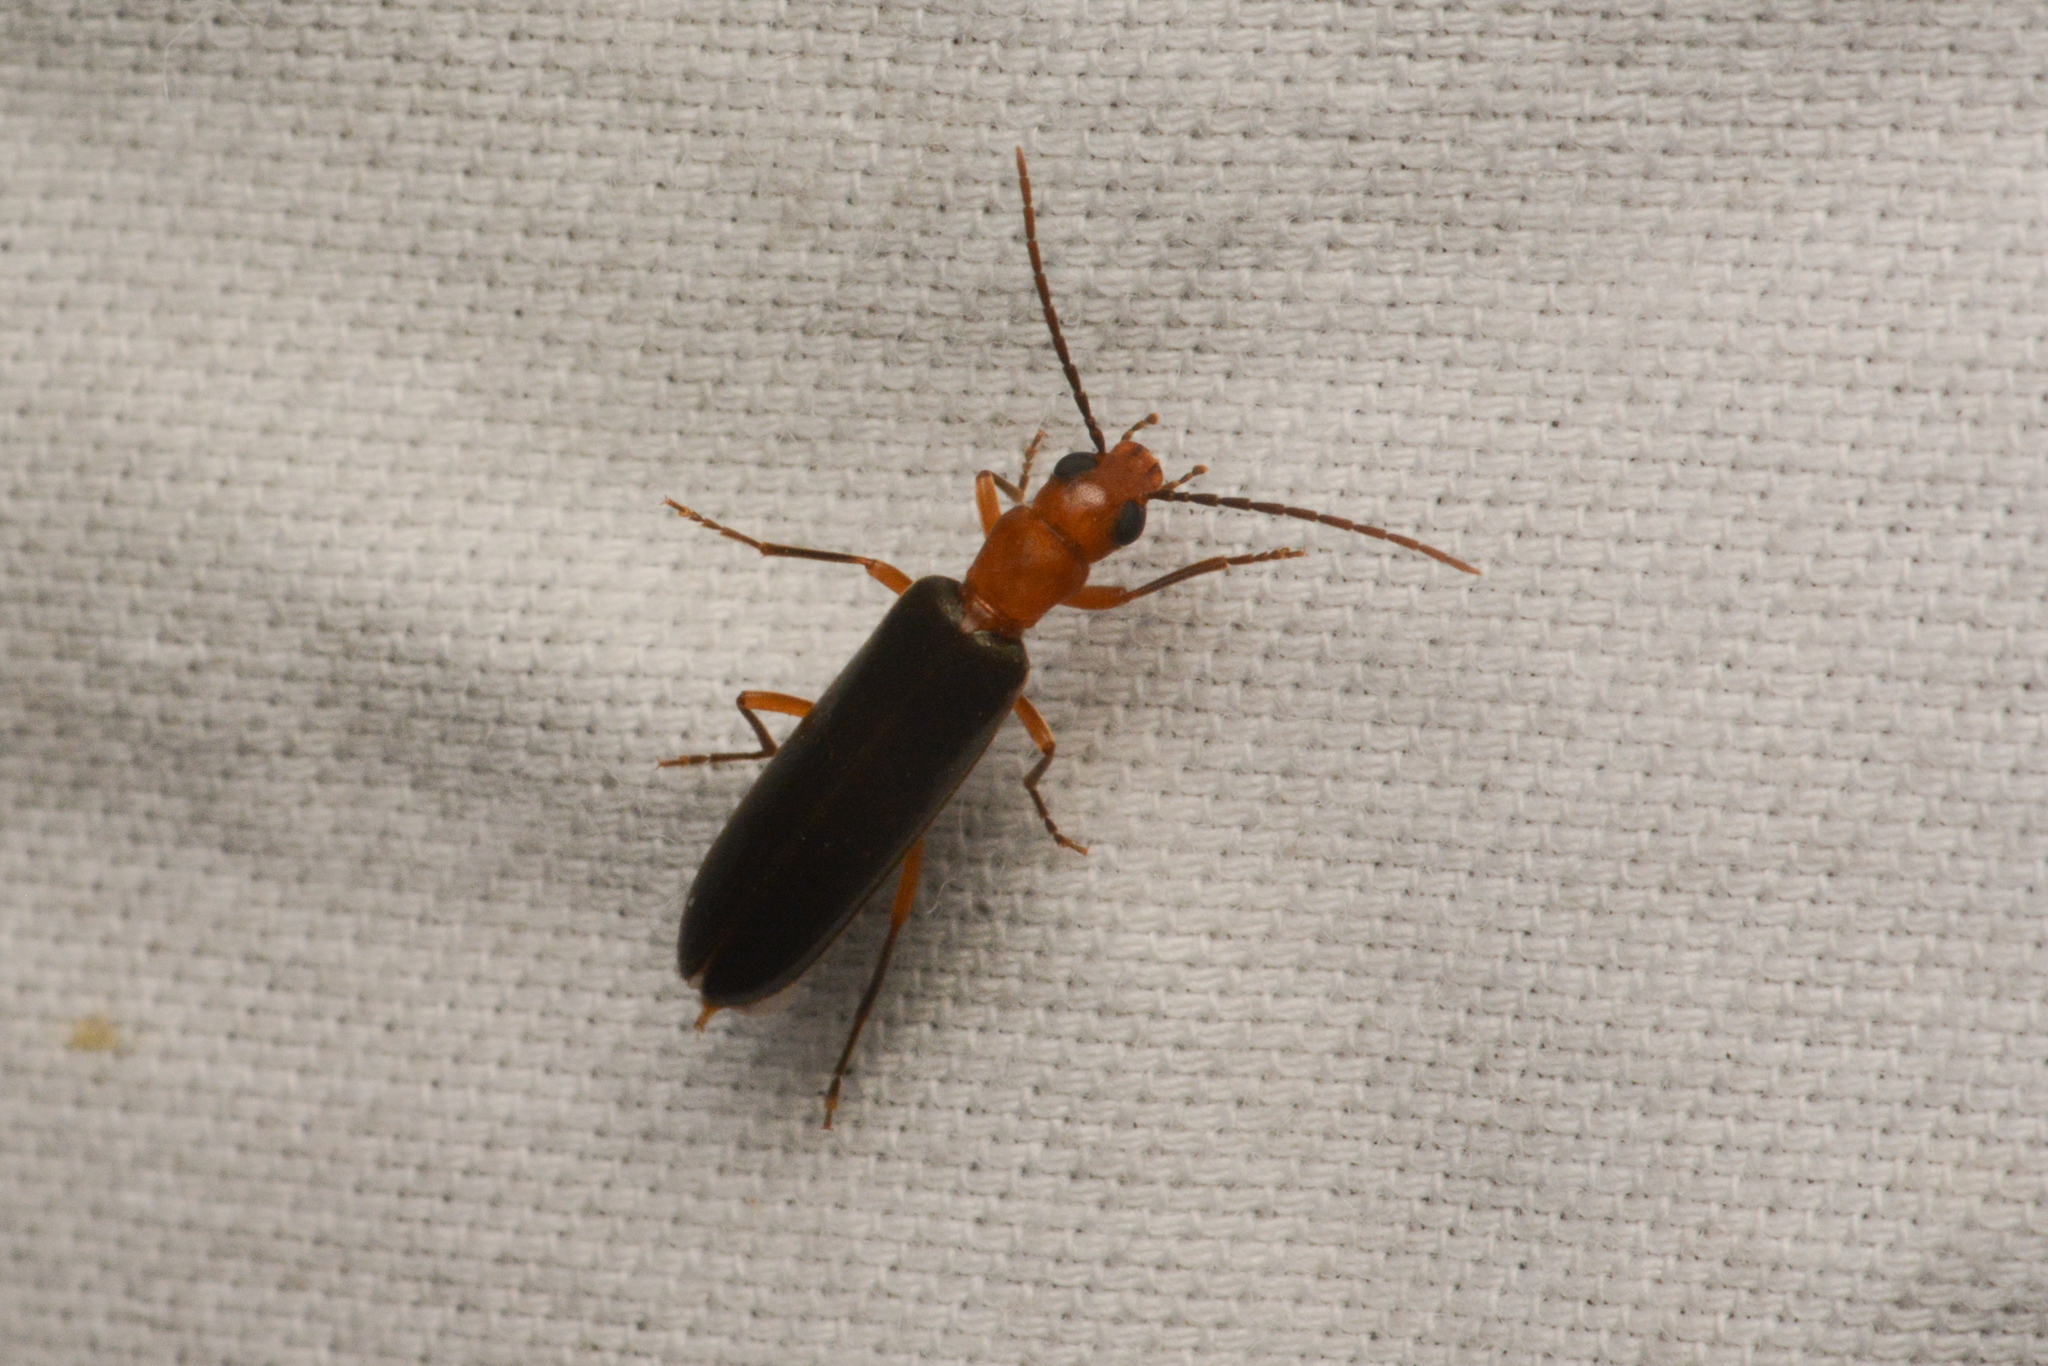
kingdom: Animalia
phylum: Arthropoda
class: Insecta
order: Coleoptera
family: Oedemeridae
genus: Xanthochroina
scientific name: Xanthochroina bicolor
